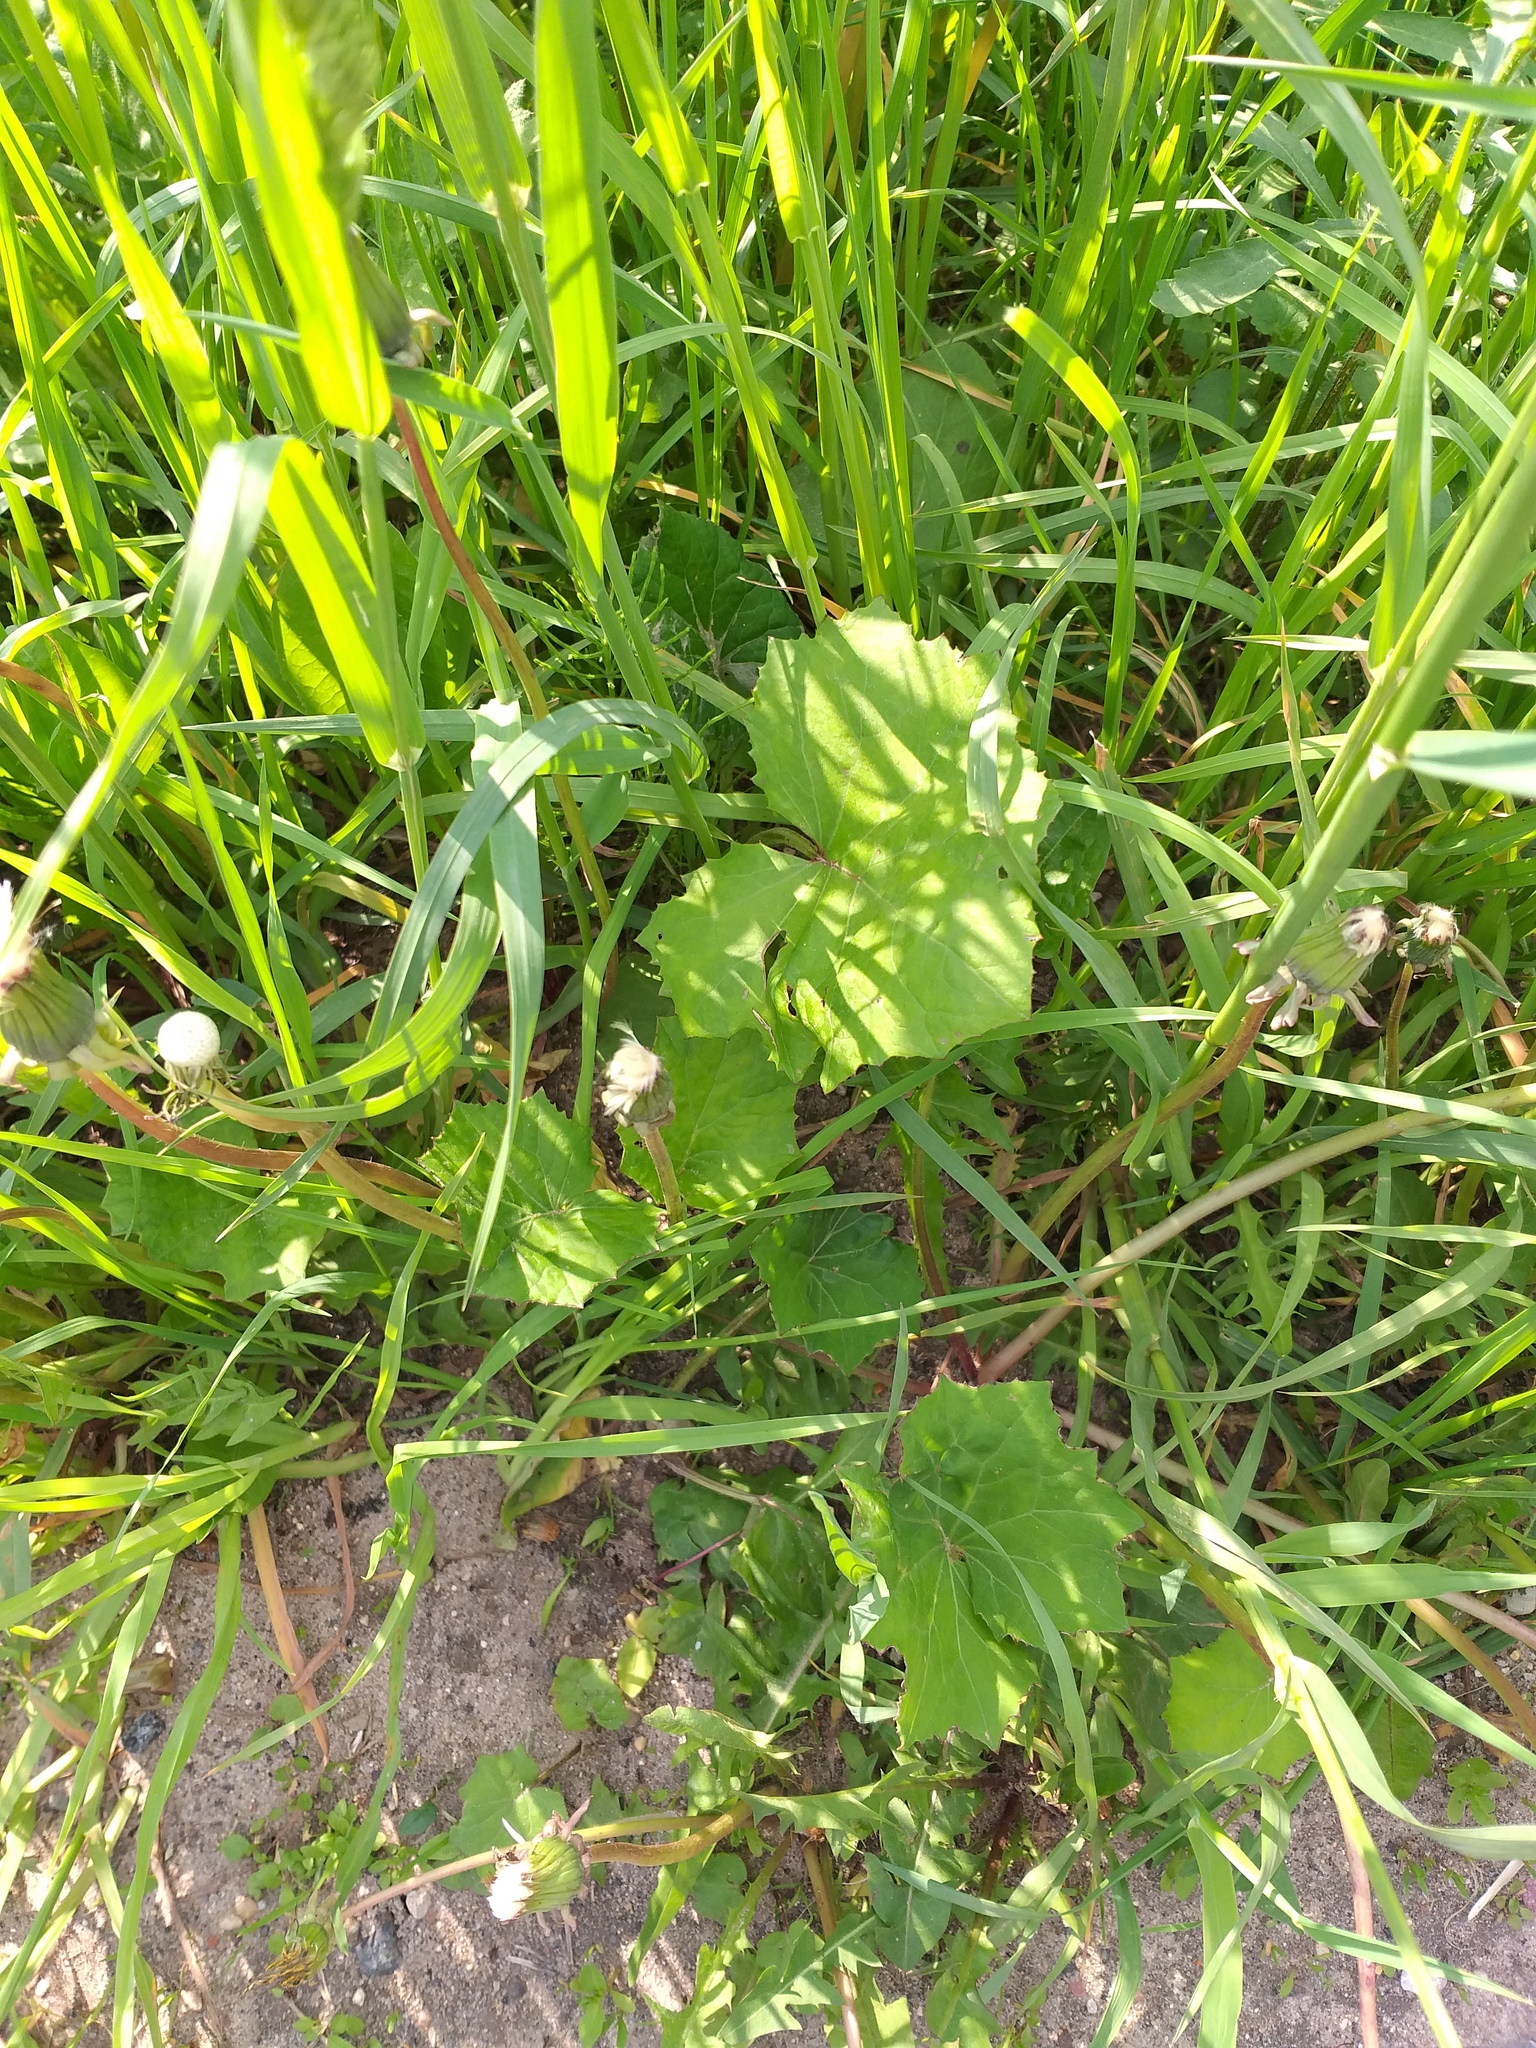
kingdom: Plantae
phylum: Tracheophyta
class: Magnoliopsida
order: Asterales
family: Asteraceae
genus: Tussilago
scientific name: Tussilago farfara
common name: Coltsfoot
